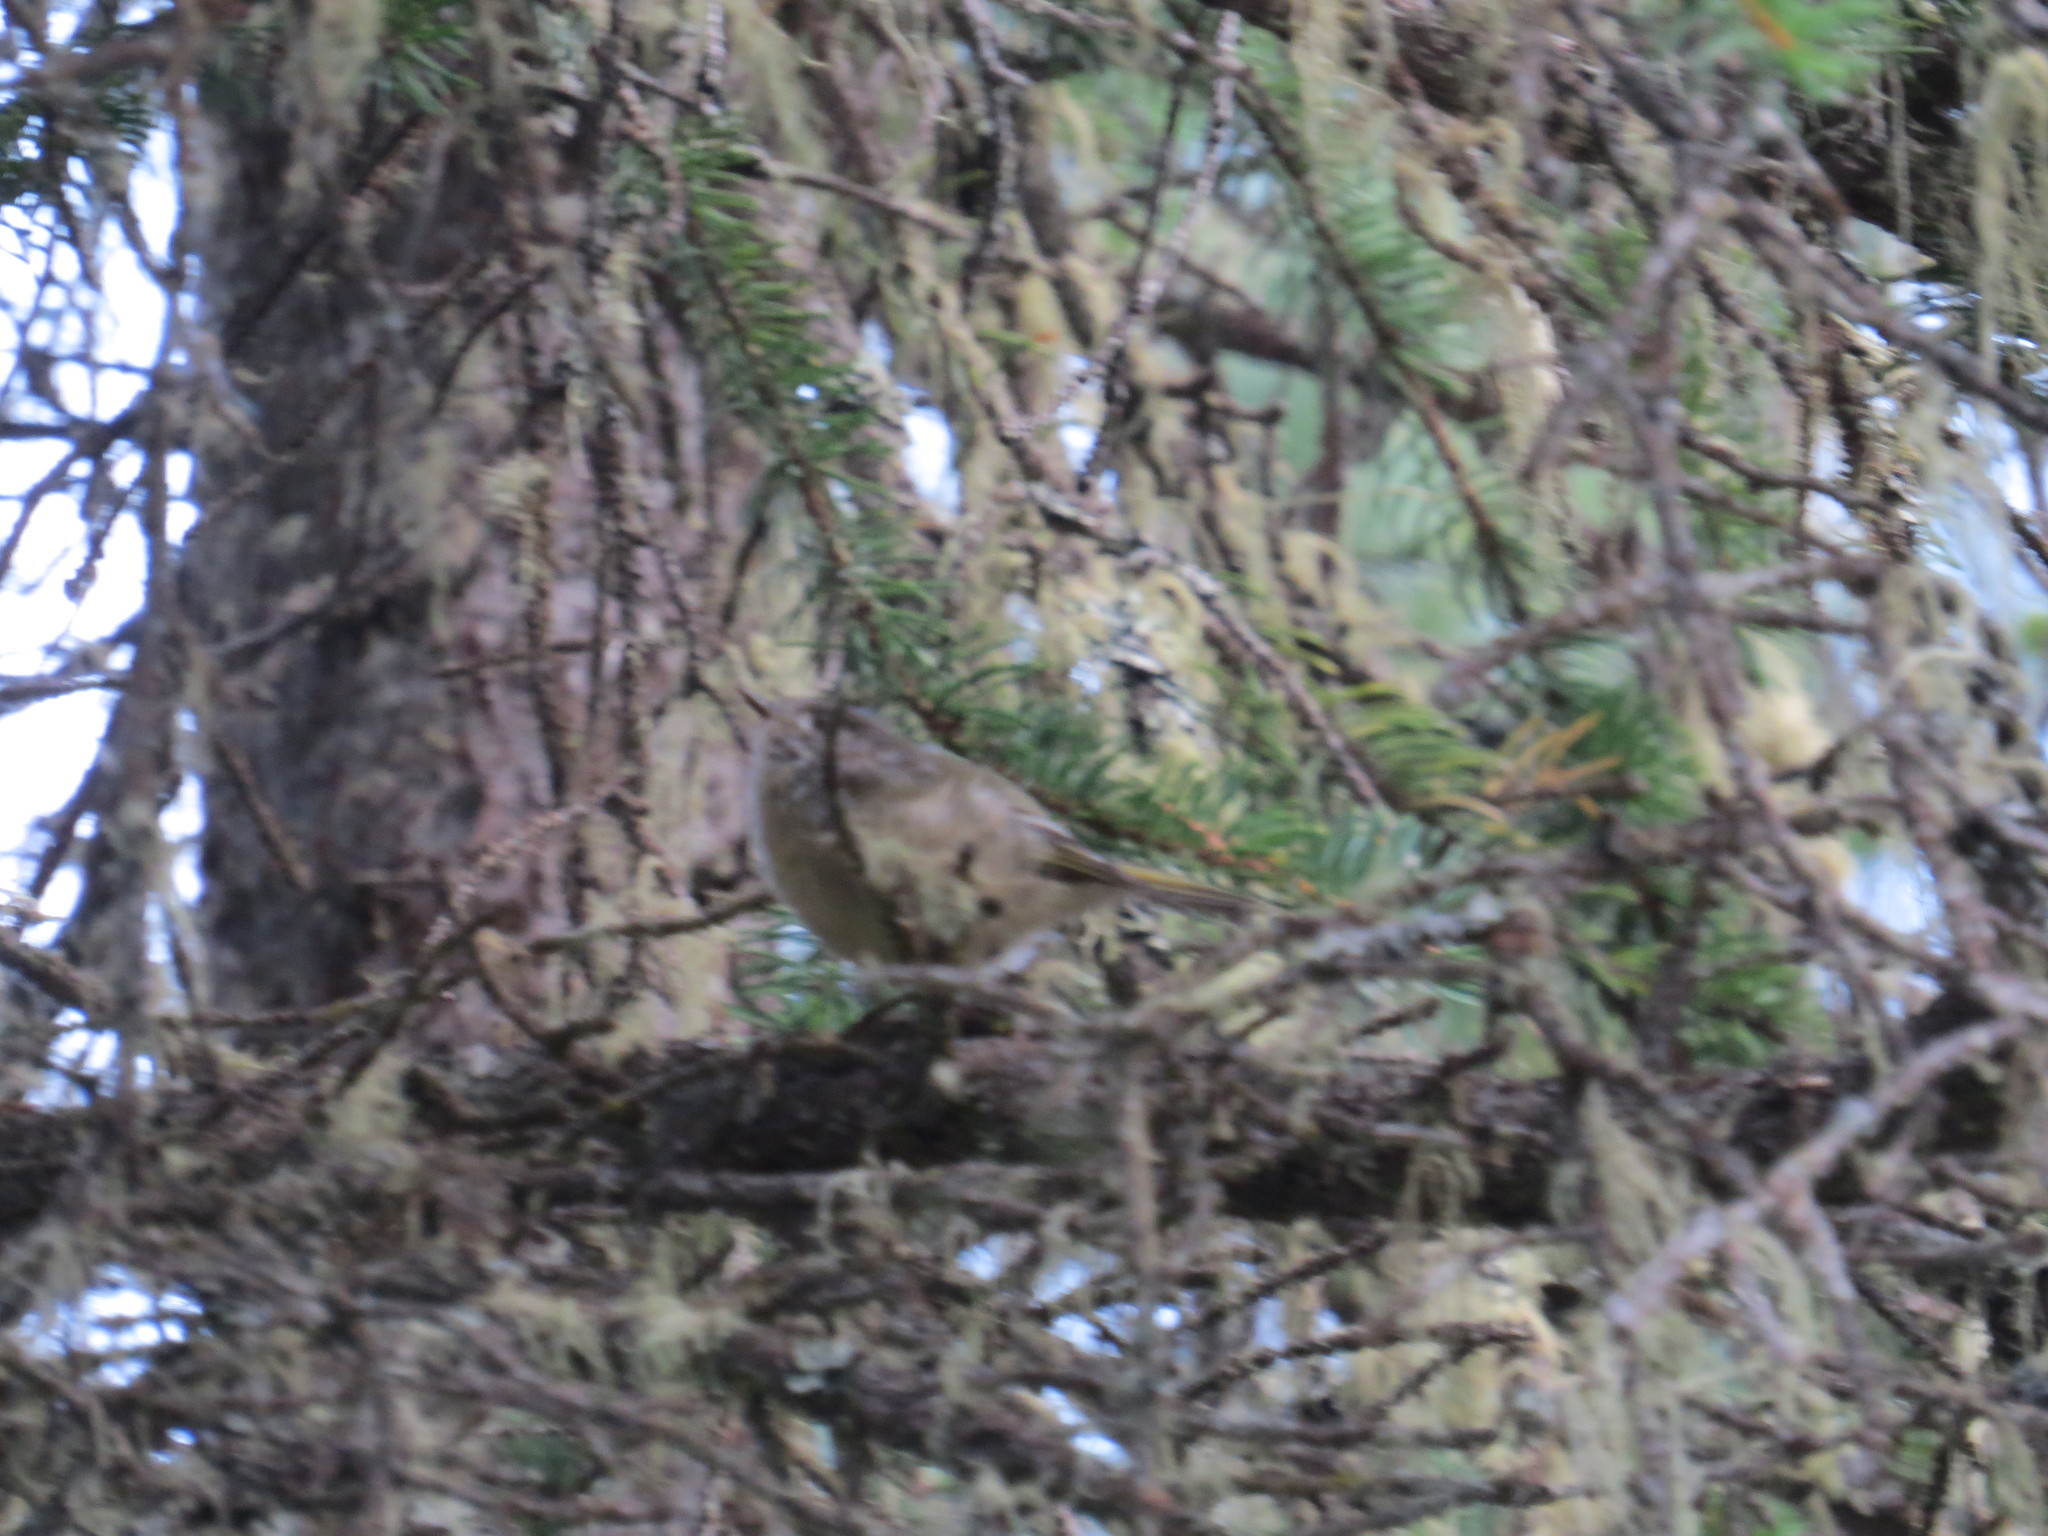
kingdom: Animalia
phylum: Chordata
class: Aves
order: Passeriformes
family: Regulidae
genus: Regulus
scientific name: Regulus calendula
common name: Ruby-crowned kinglet
